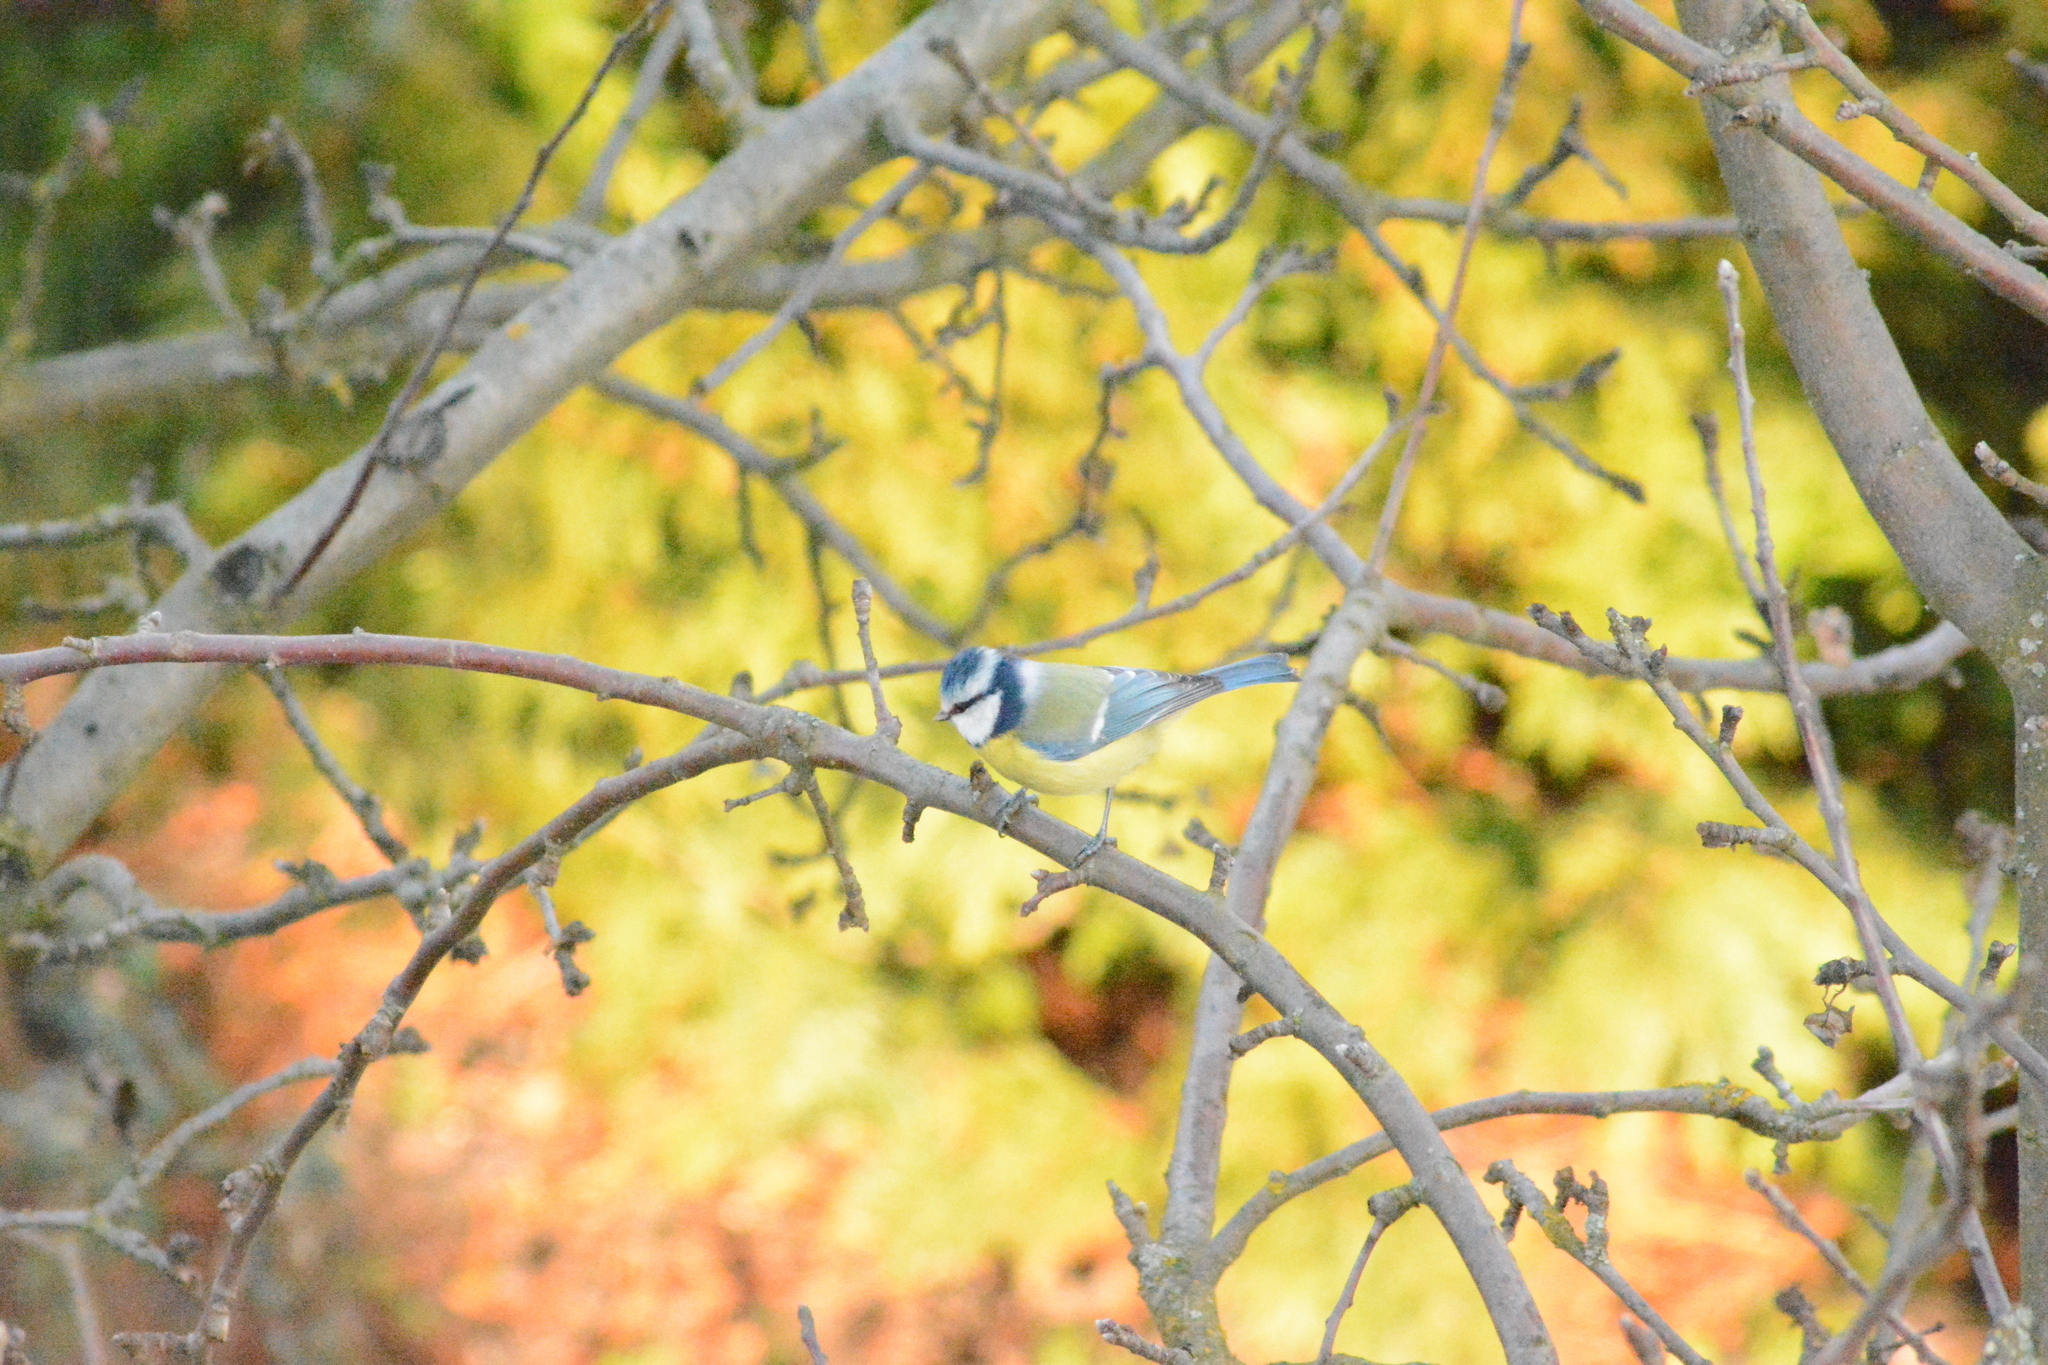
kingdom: Animalia
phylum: Chordata
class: Aves
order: Passeriformes
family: Paridae
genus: Cyanistes
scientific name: Cyanistes caeruleus
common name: Eurasian blue tit
